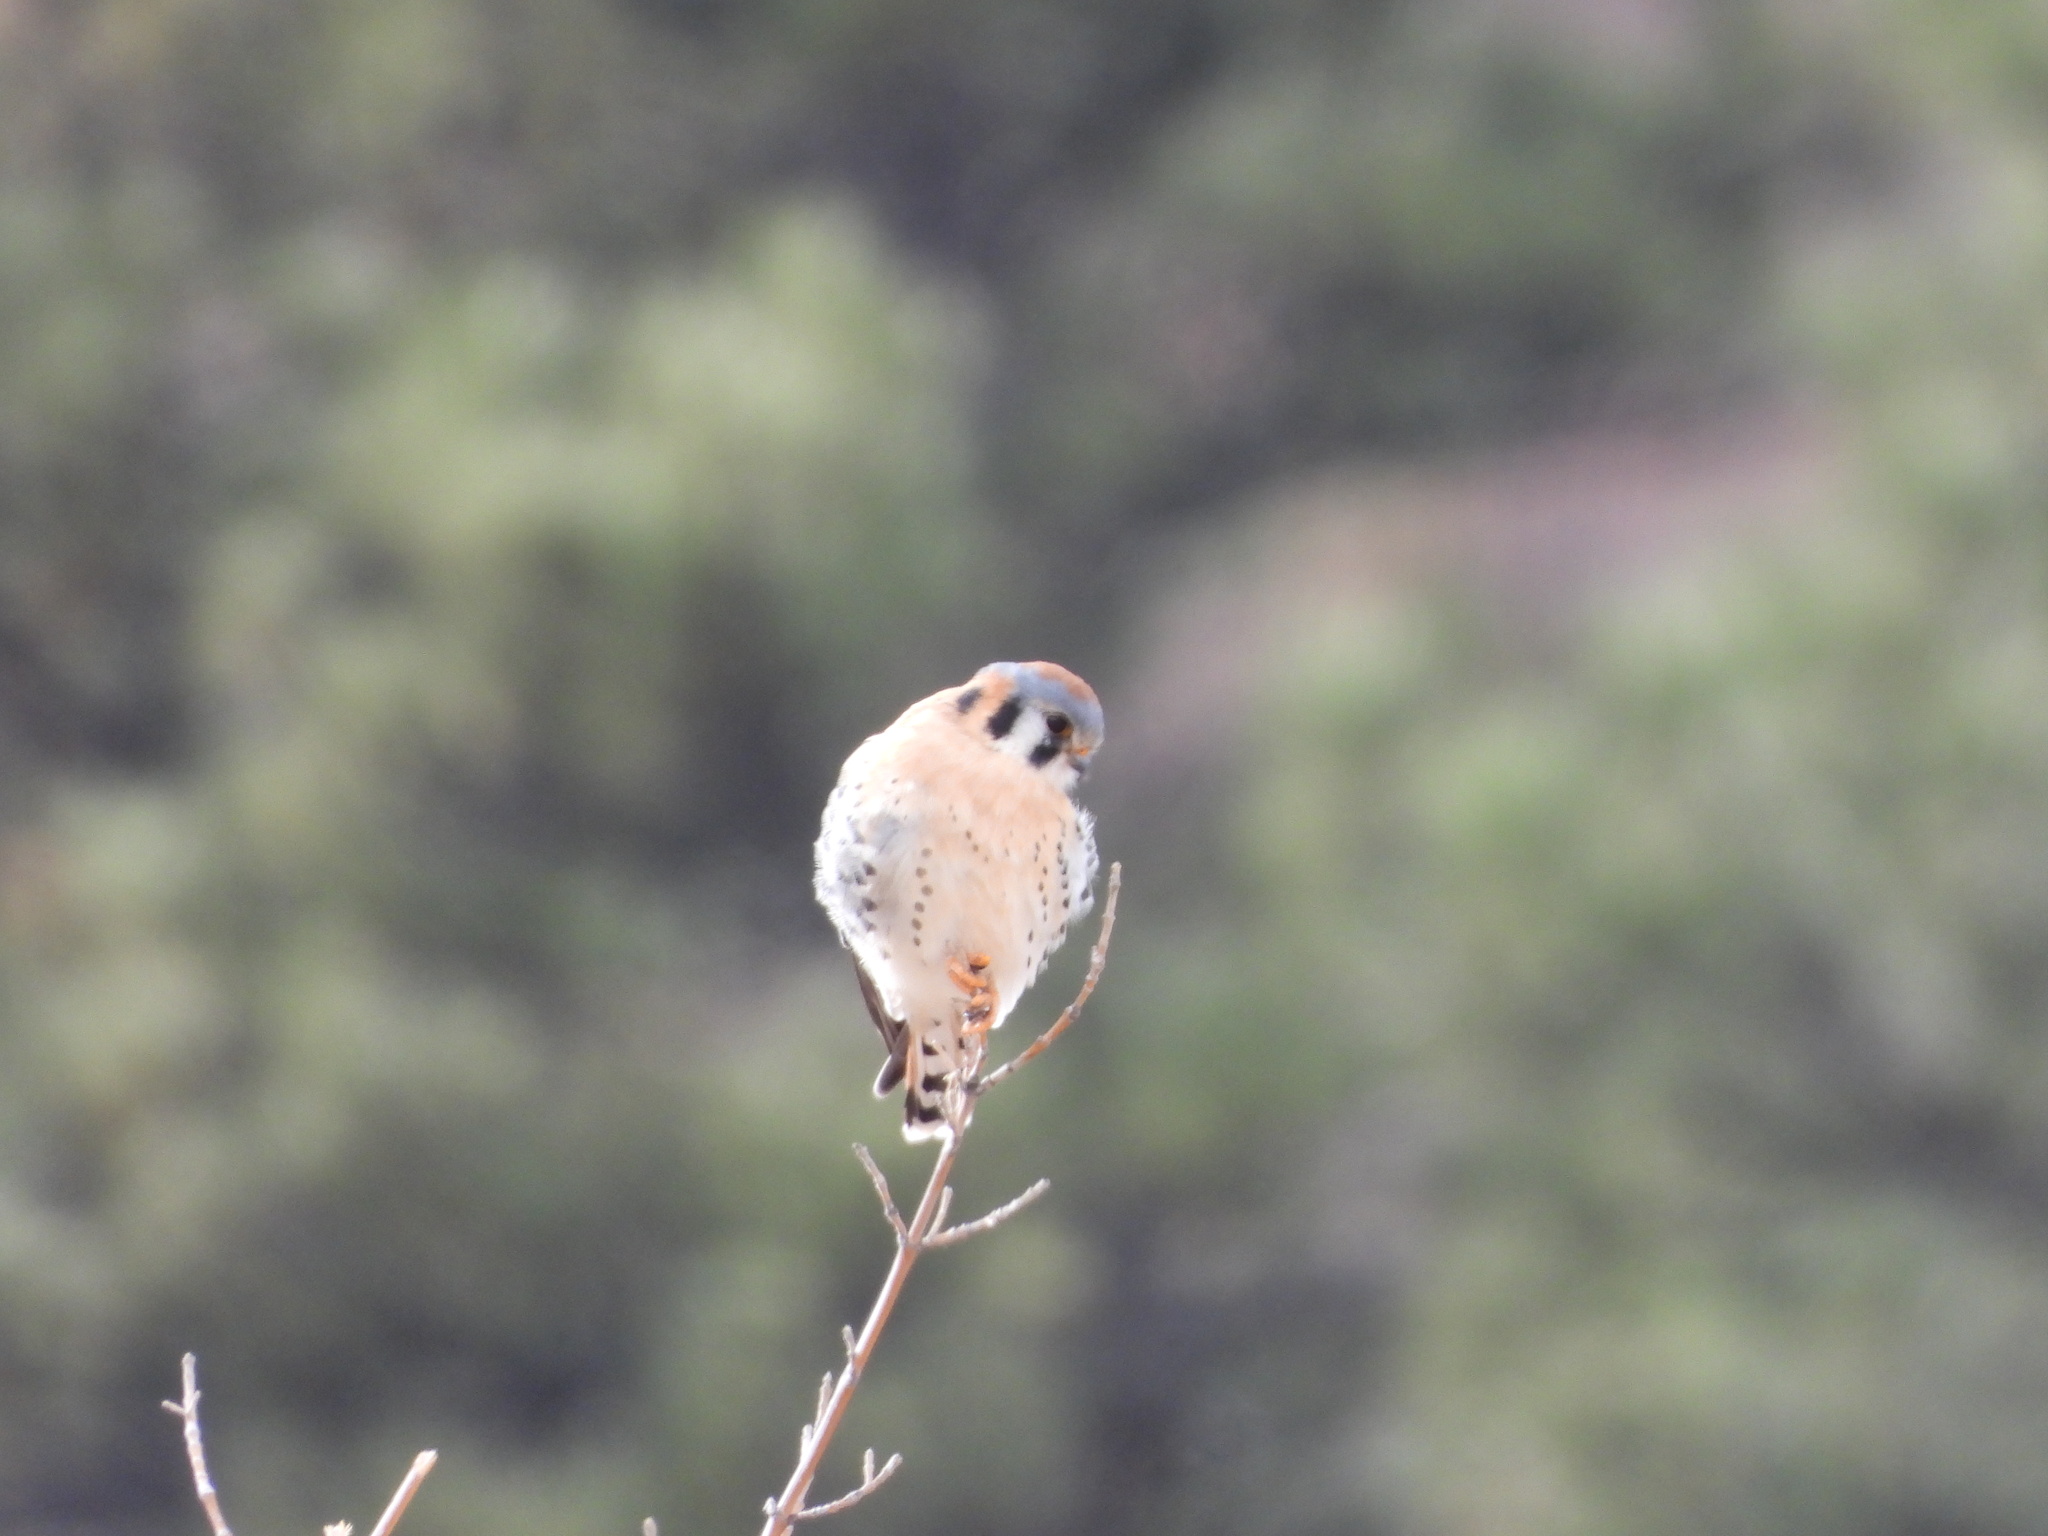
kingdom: Animalia
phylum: Chordata
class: Aves
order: Falconiformes
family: Falconidae
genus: Falco
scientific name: Falco sparverius
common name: American kestrel
